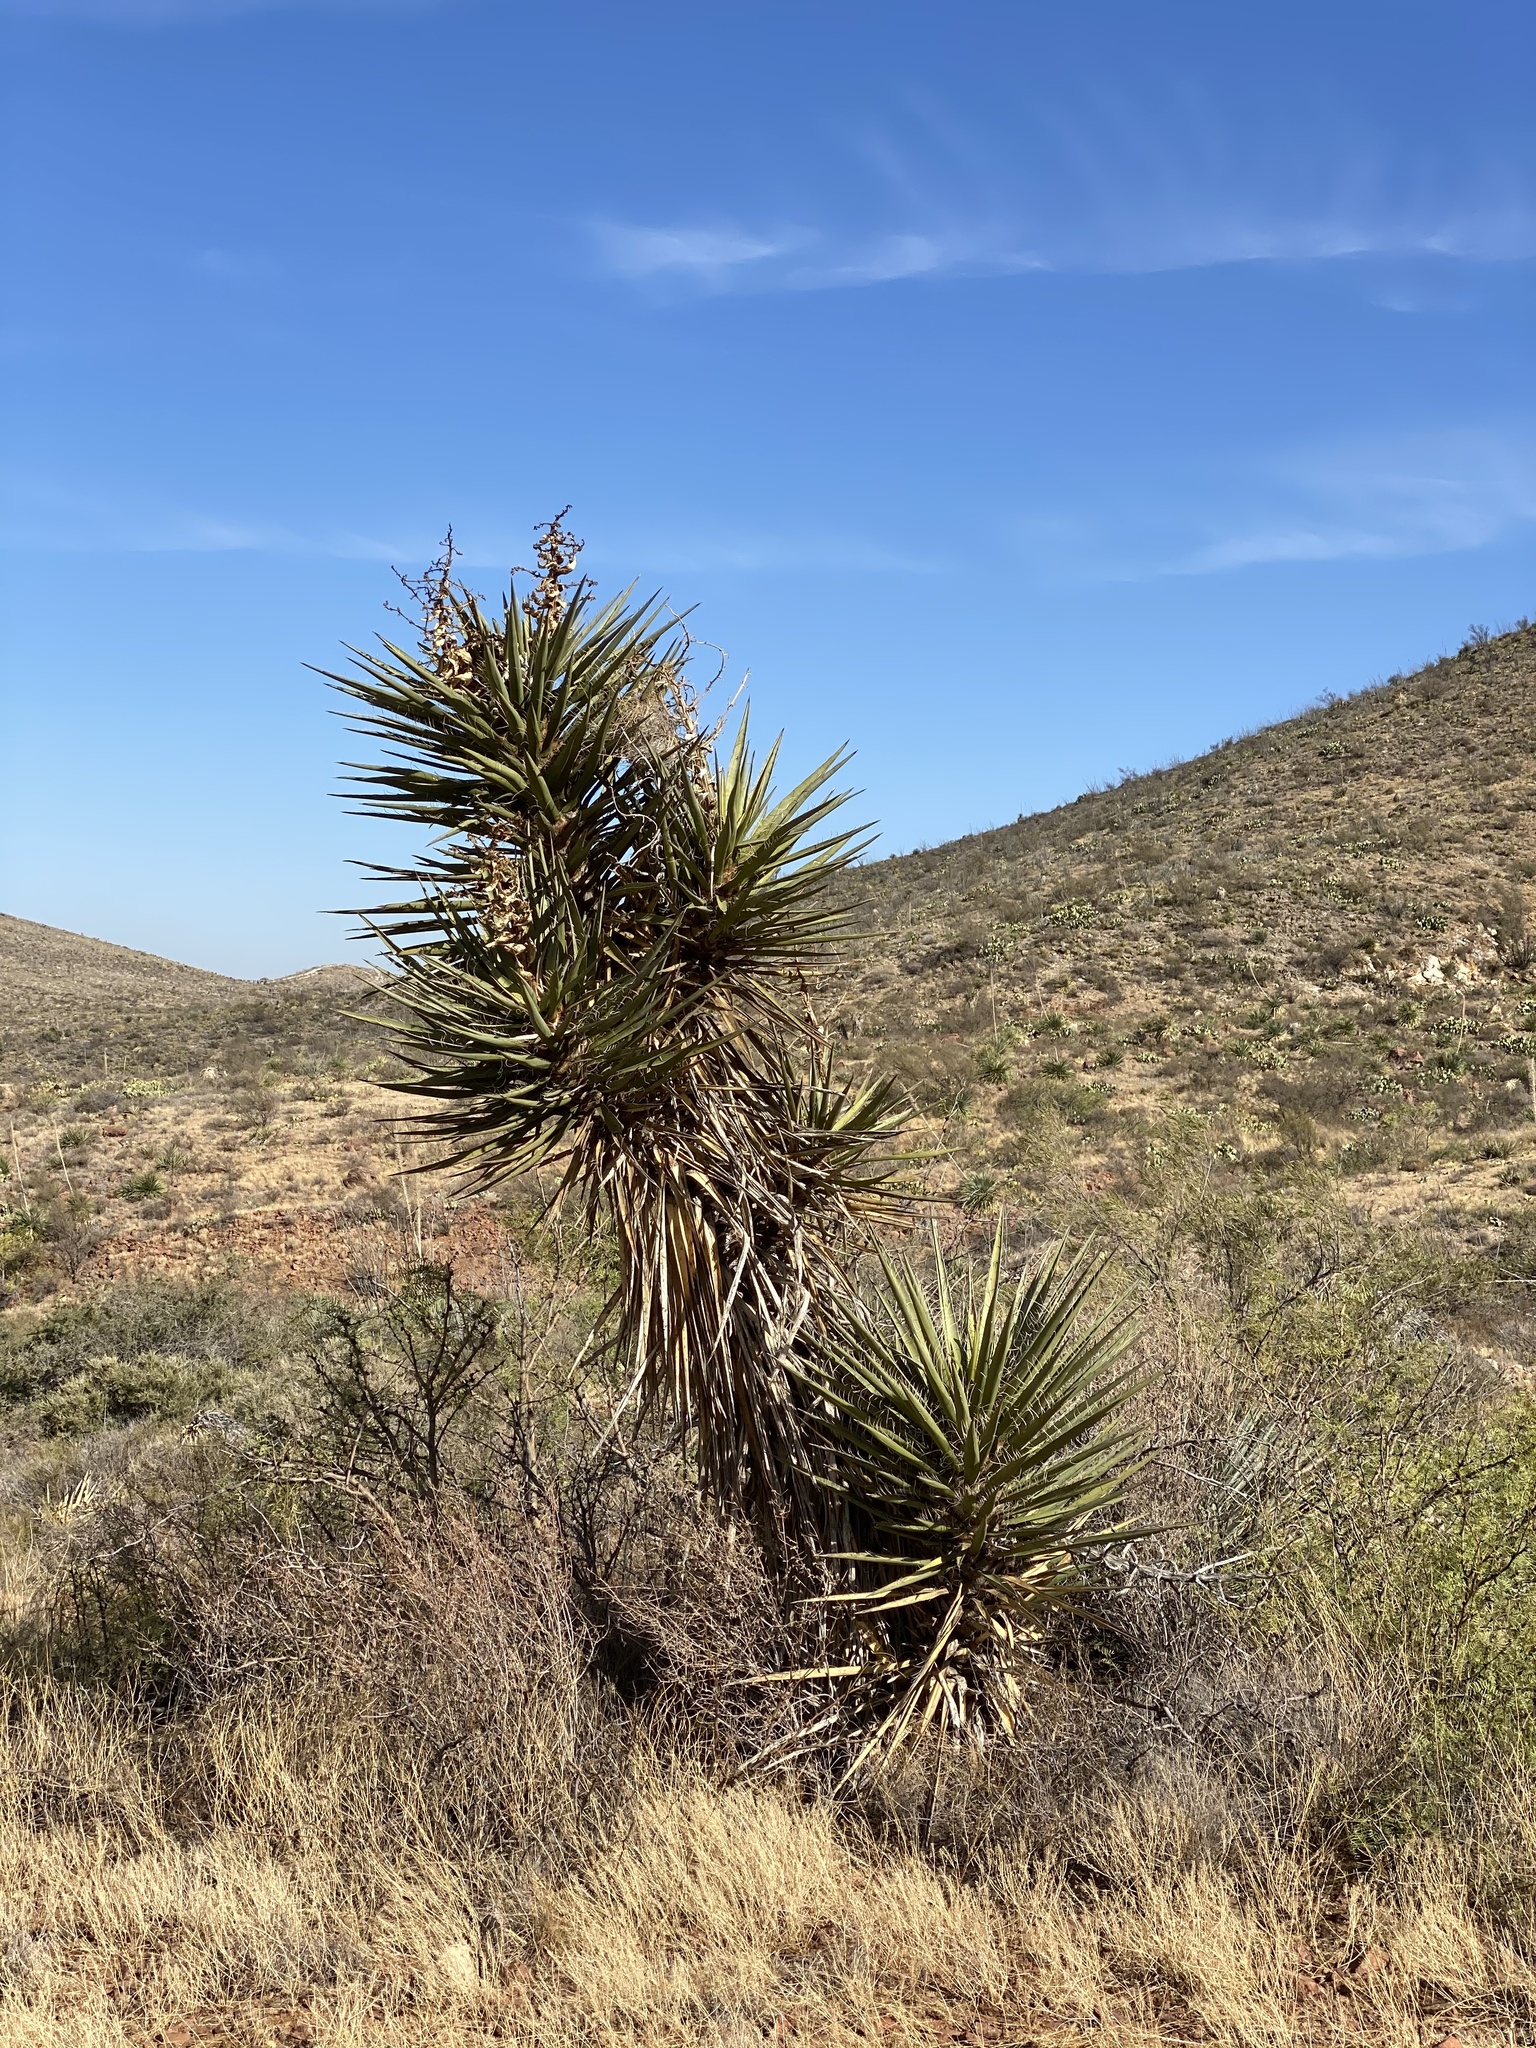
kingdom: Plantae
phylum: Tracheophyta
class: Liliopsida
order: Asparagales
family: Asparagaceae
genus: Yucca
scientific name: Yucca treculiana
